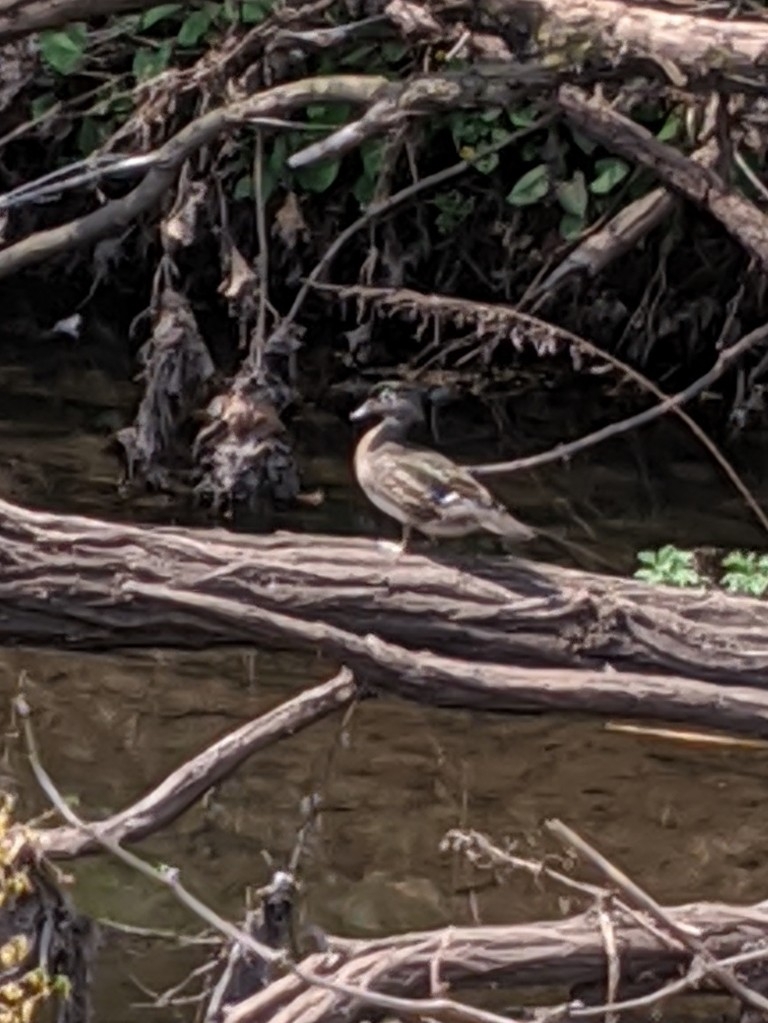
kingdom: Animalia
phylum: Chordata
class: Aves
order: Anseriformes
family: Anatidae
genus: Aix
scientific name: Aix sponsa
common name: Wood duck
